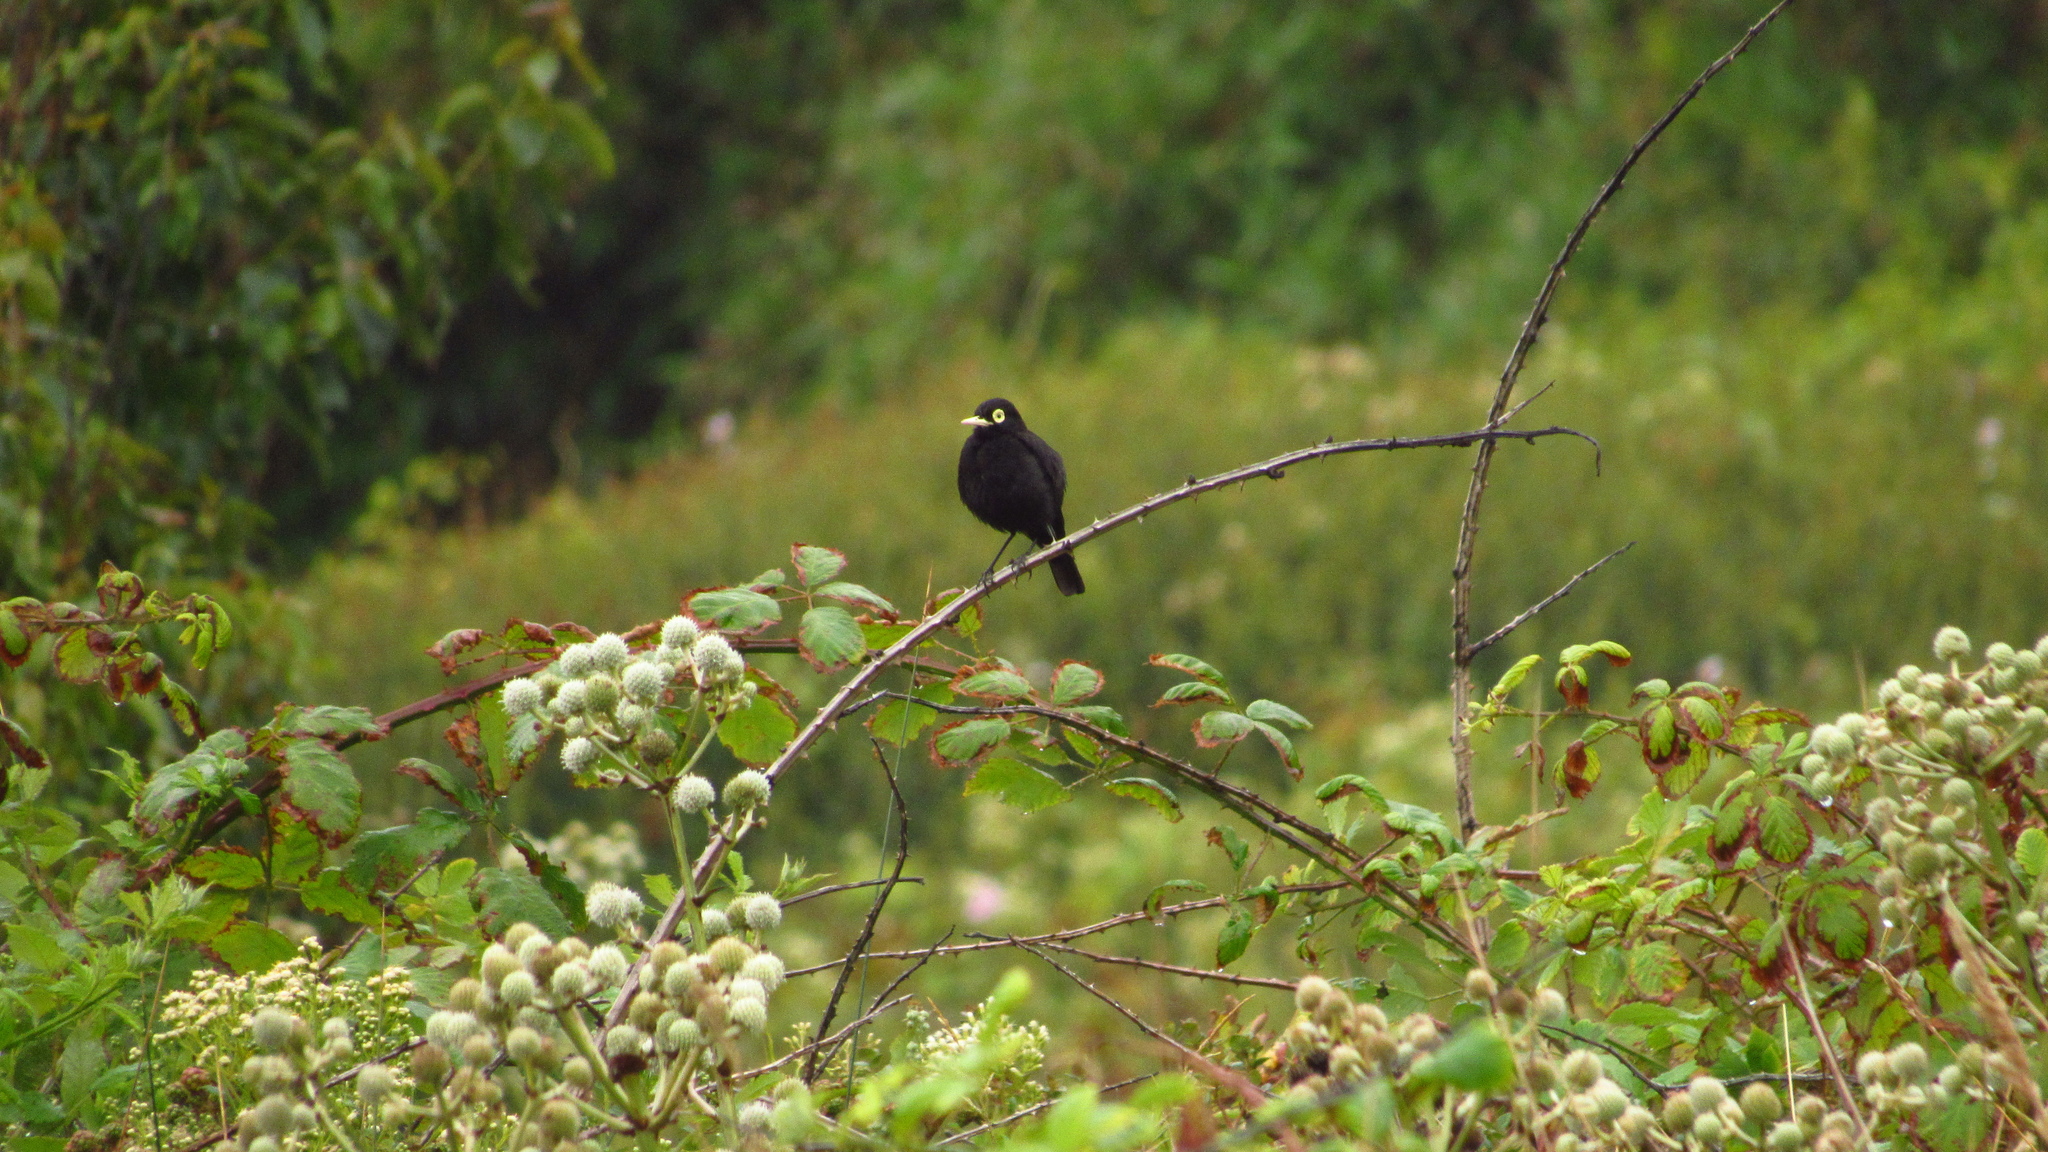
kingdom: Animalia
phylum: Chordata
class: Aves
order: Passeriformes
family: Tyrannidae
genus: Hymenops
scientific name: Hymenops perspicillatus
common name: Spectacled tyrant
